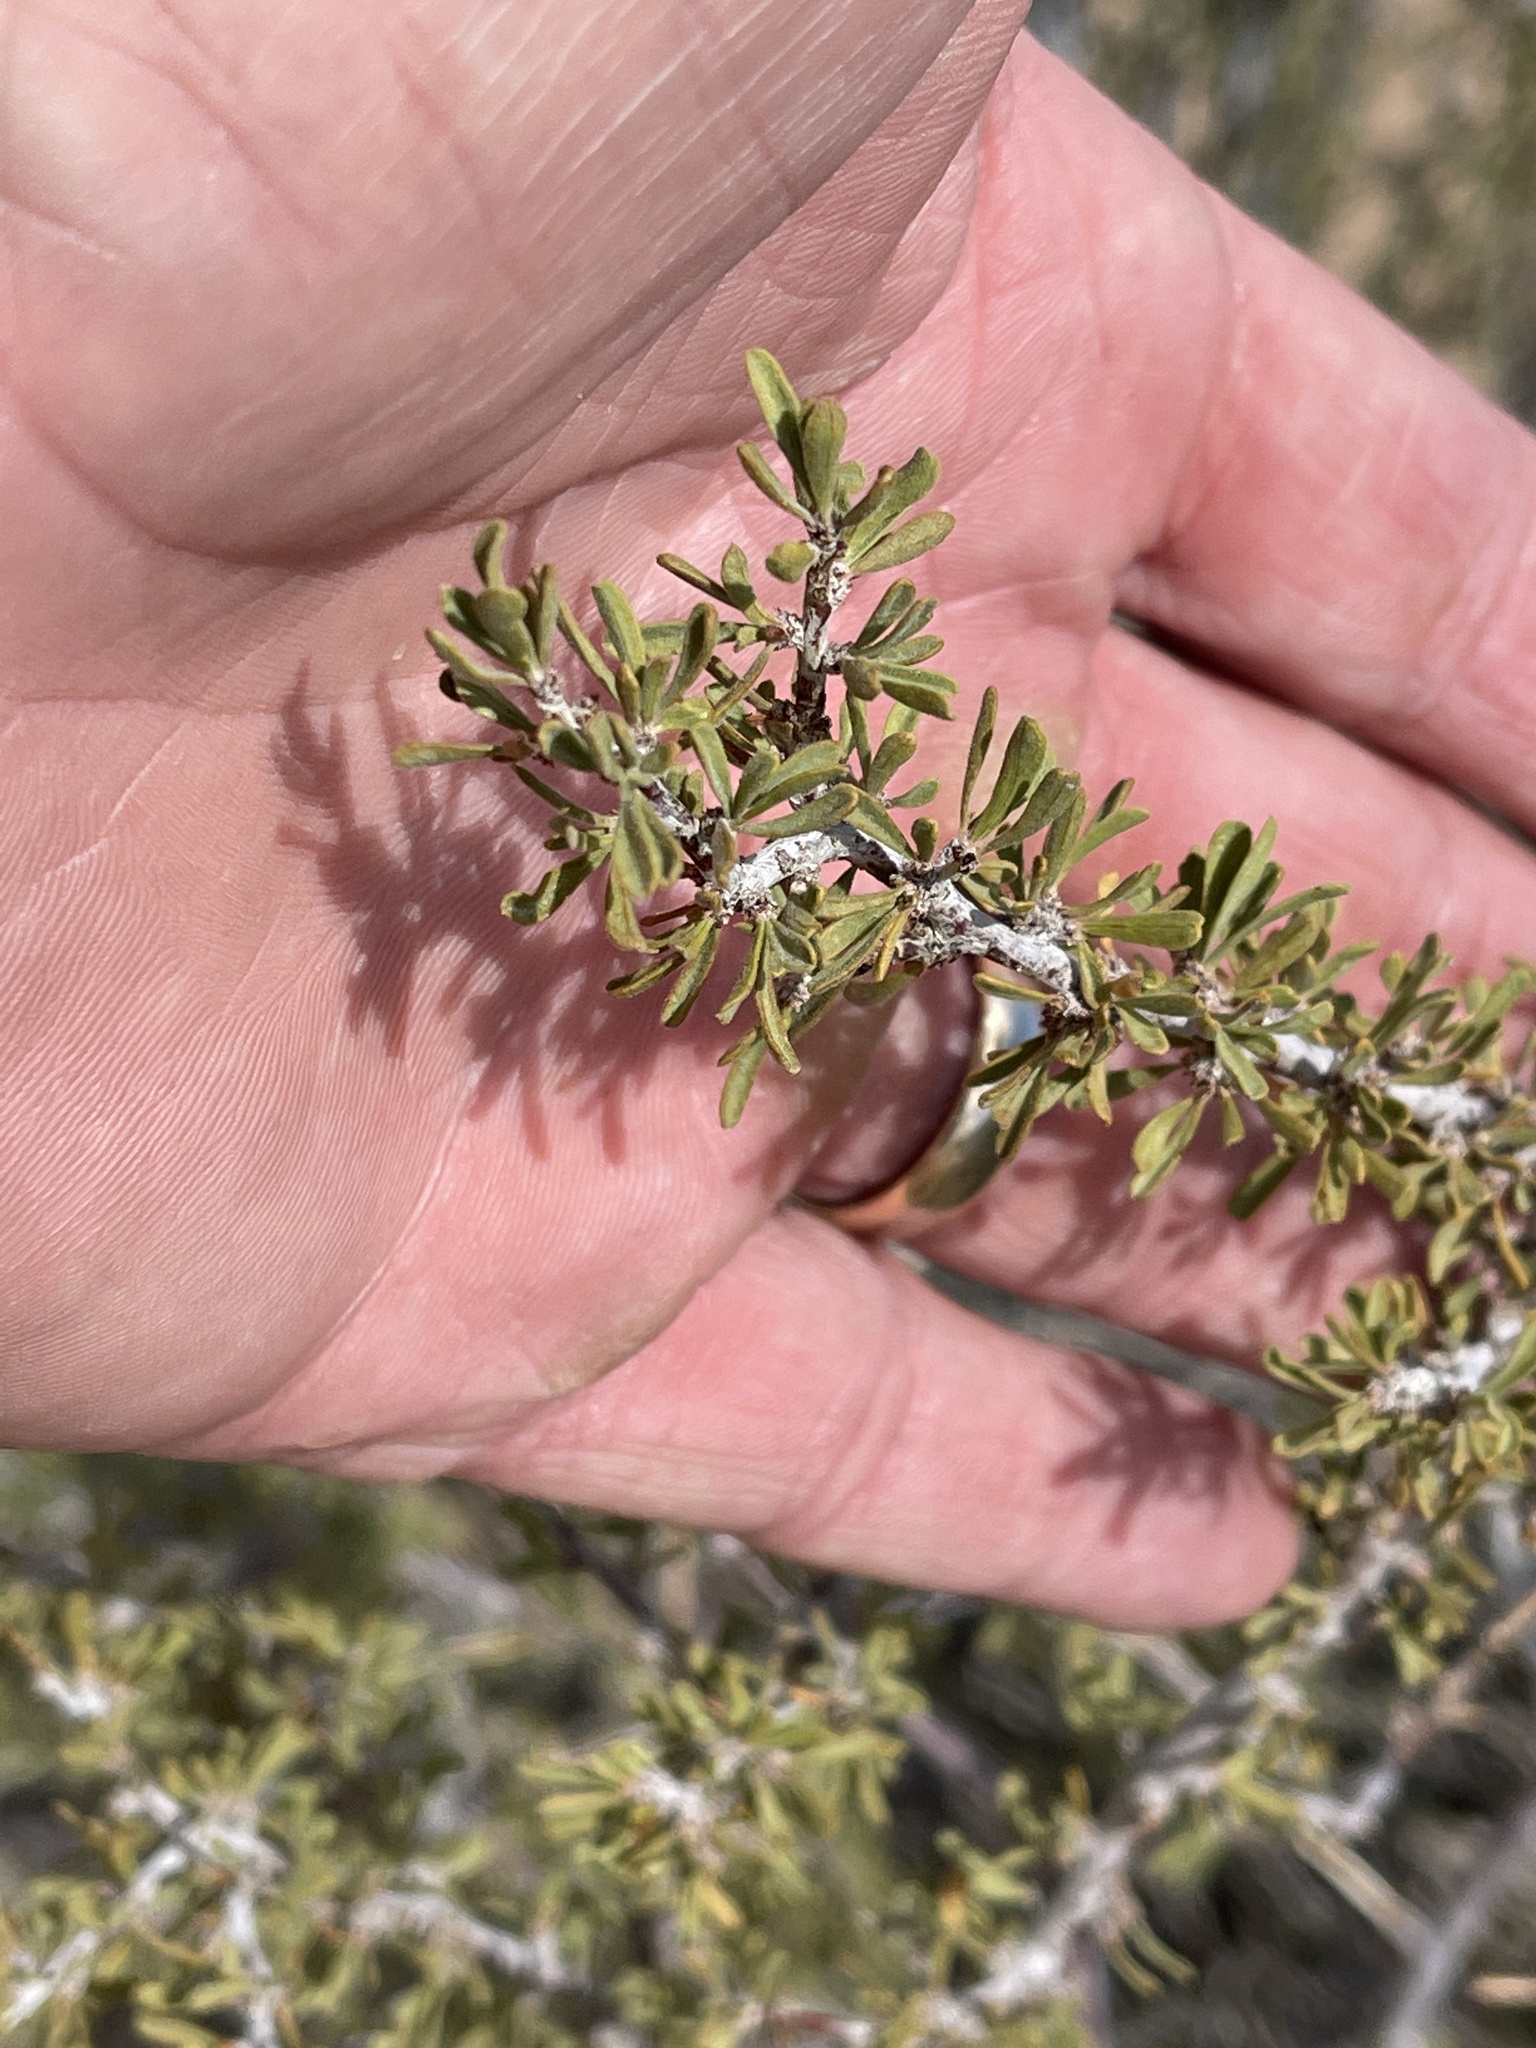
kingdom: Plantae
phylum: Tracheophyta
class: Magnoliopsida
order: Rosales
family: Rosaceae
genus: Prunus
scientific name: Prunus fasciculata
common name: Desert almond
